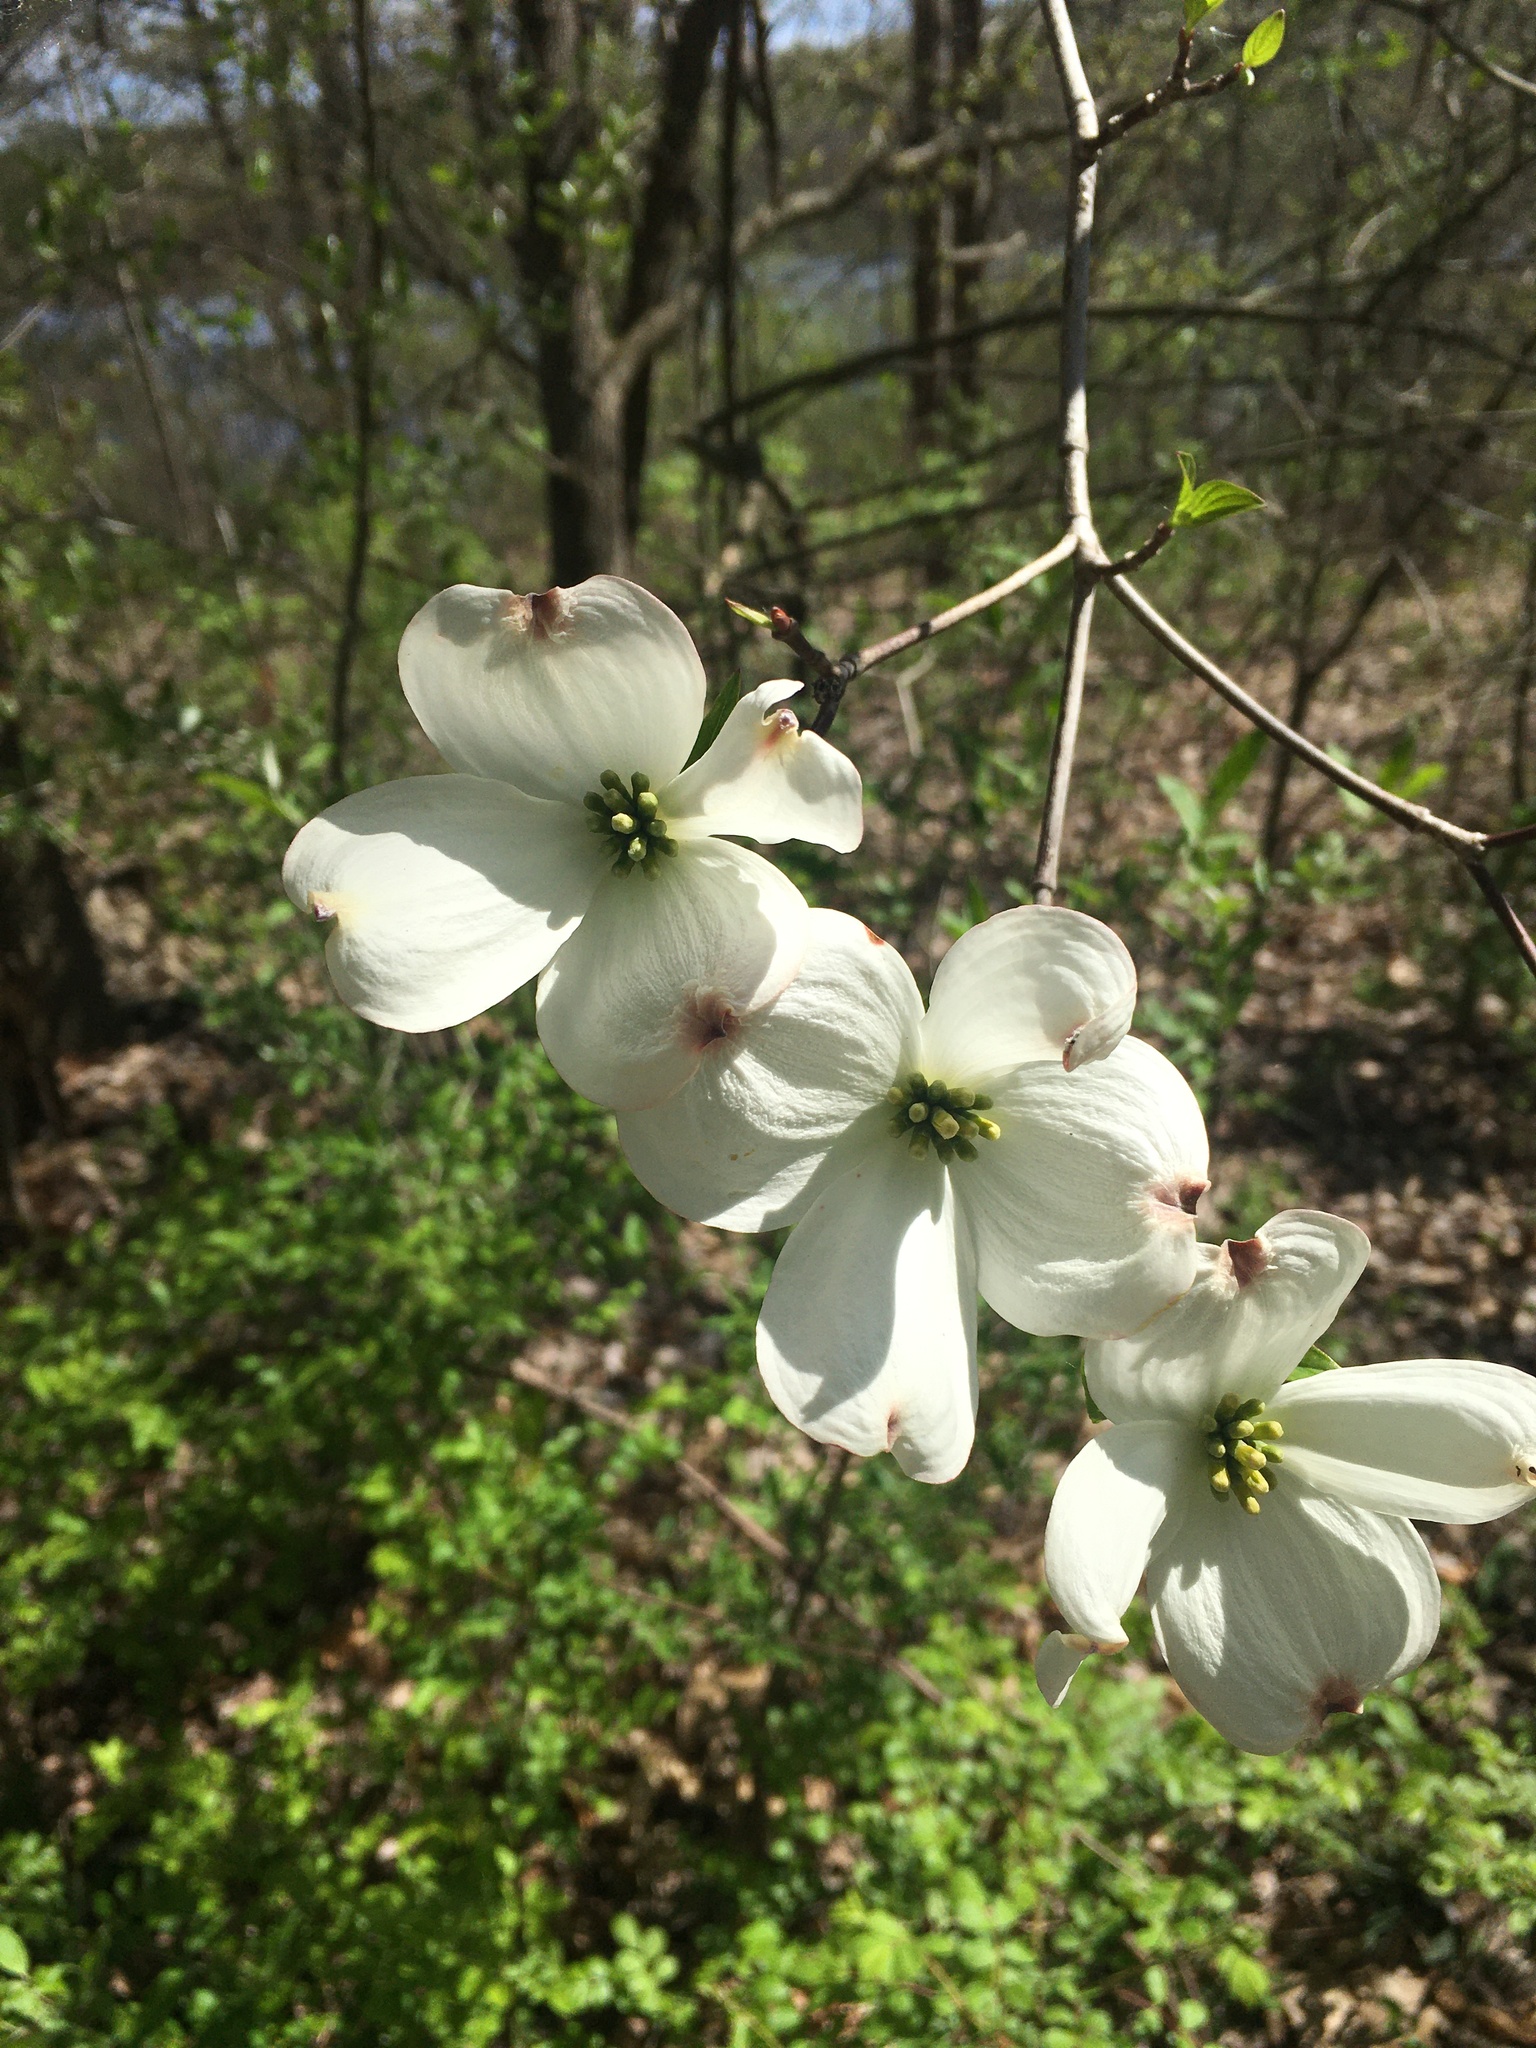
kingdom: Plantae
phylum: Tracheophyta
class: Magnoliopsida
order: Cornales
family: Cornaceae
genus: Cornus
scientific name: Cornus florida
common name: Flowering dogwood
